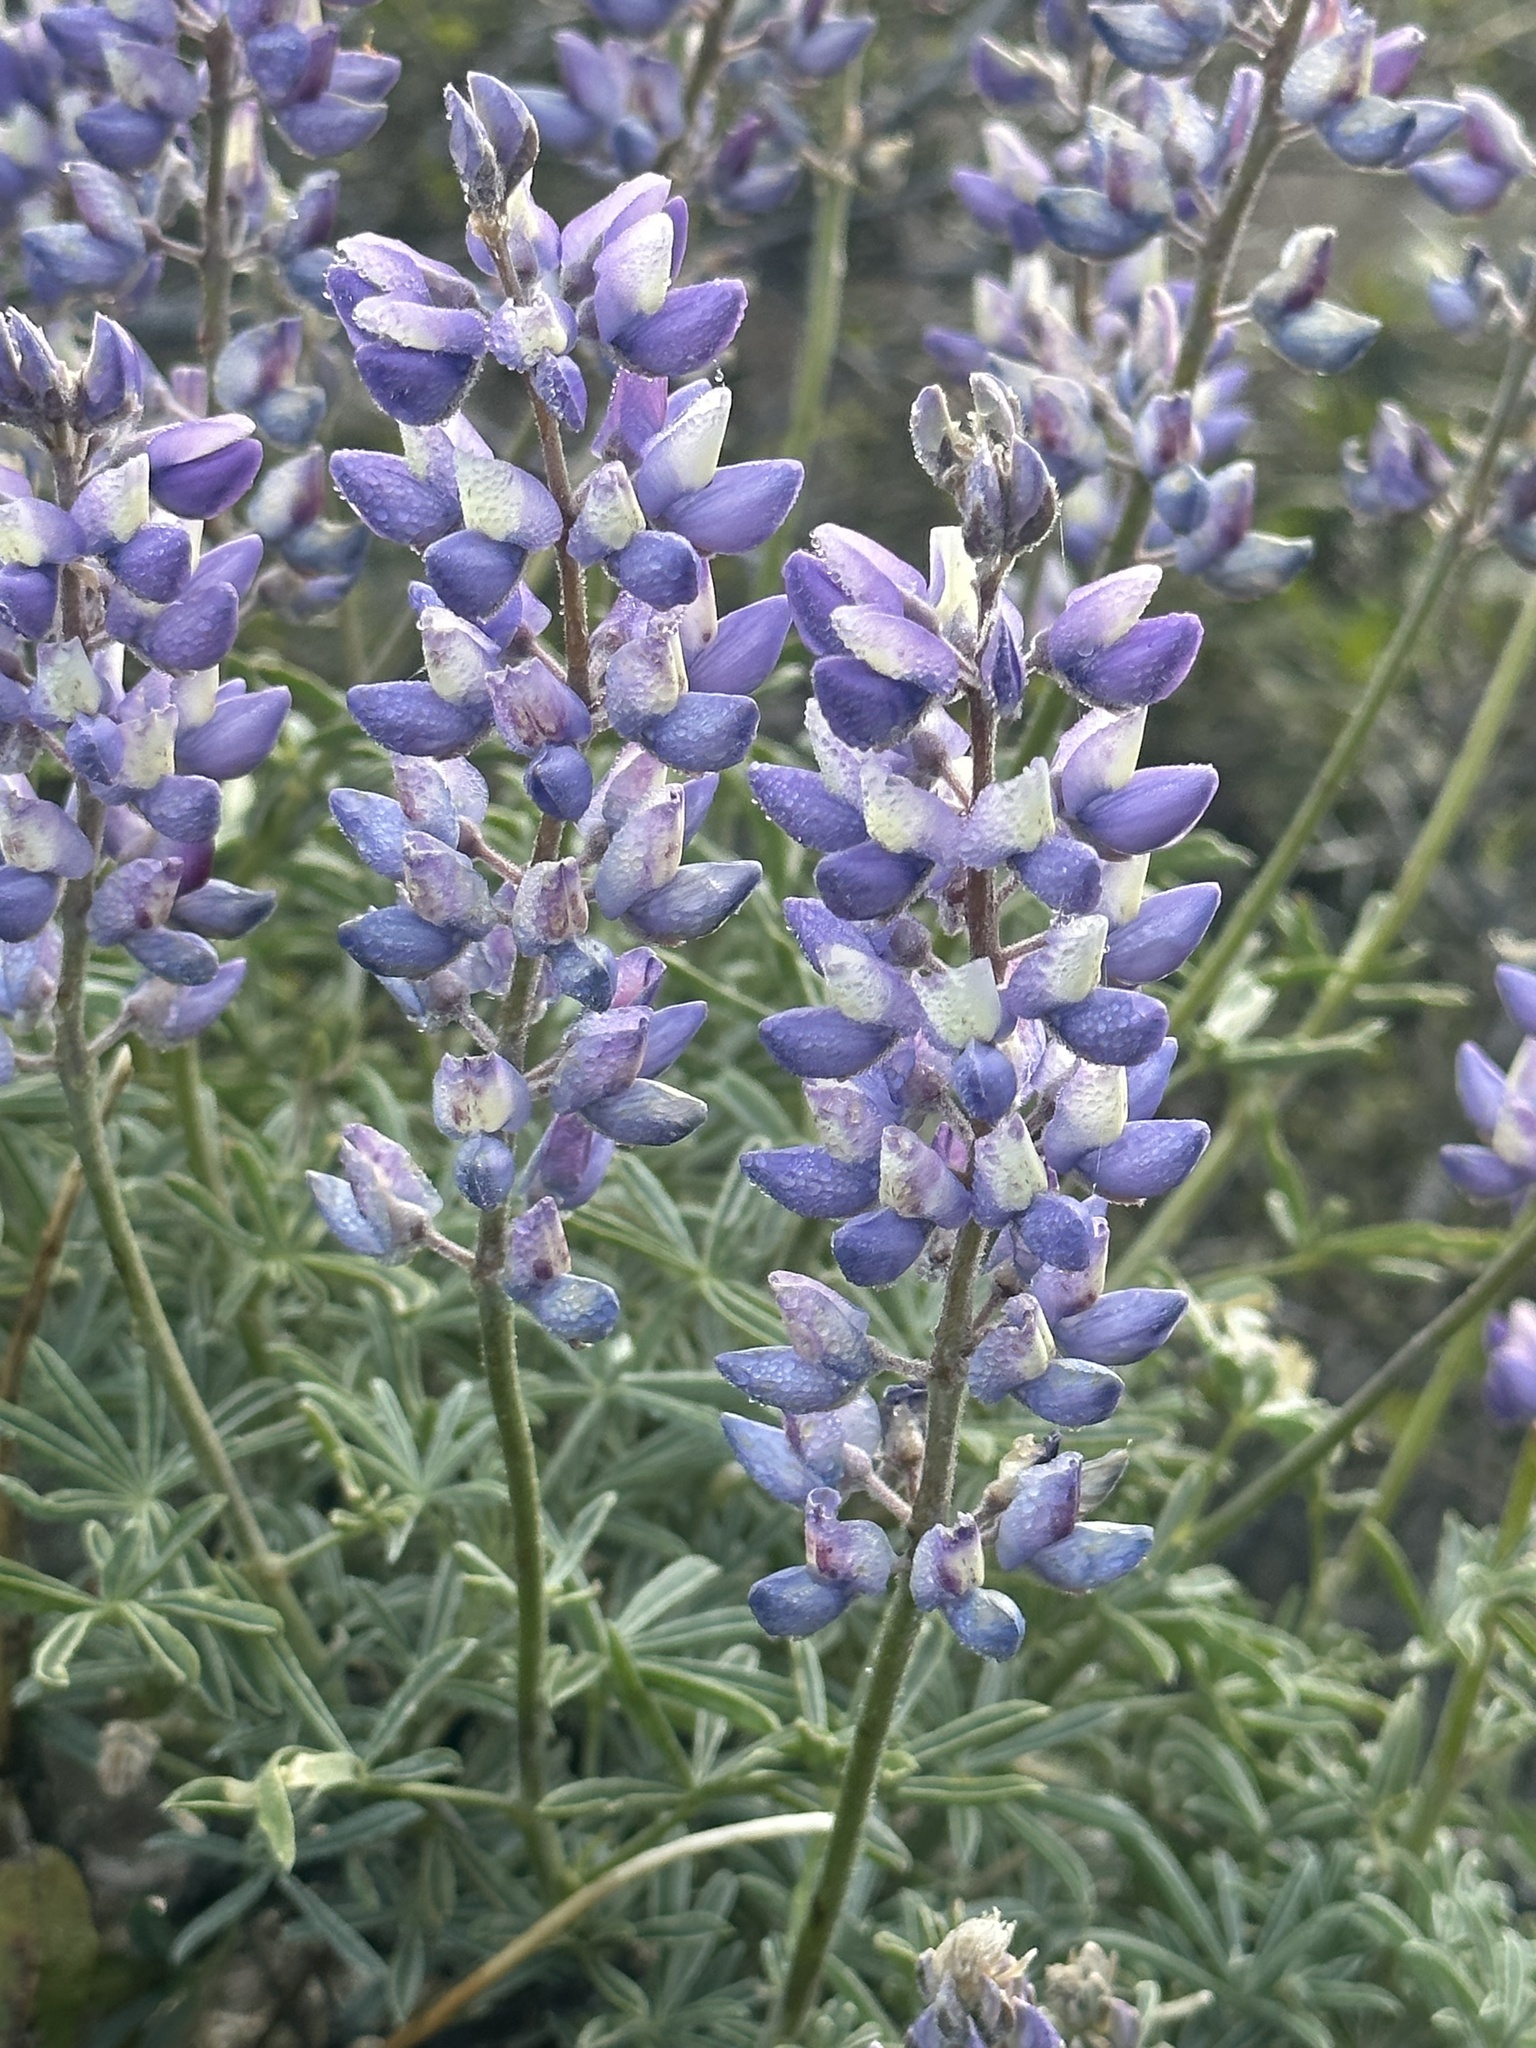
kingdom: Plantae
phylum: Tracheophyta
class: Magnoliopsida
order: Fabales
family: Fabaceae
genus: Lupinus
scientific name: Lupinus albifrons
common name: Foothill lupine
